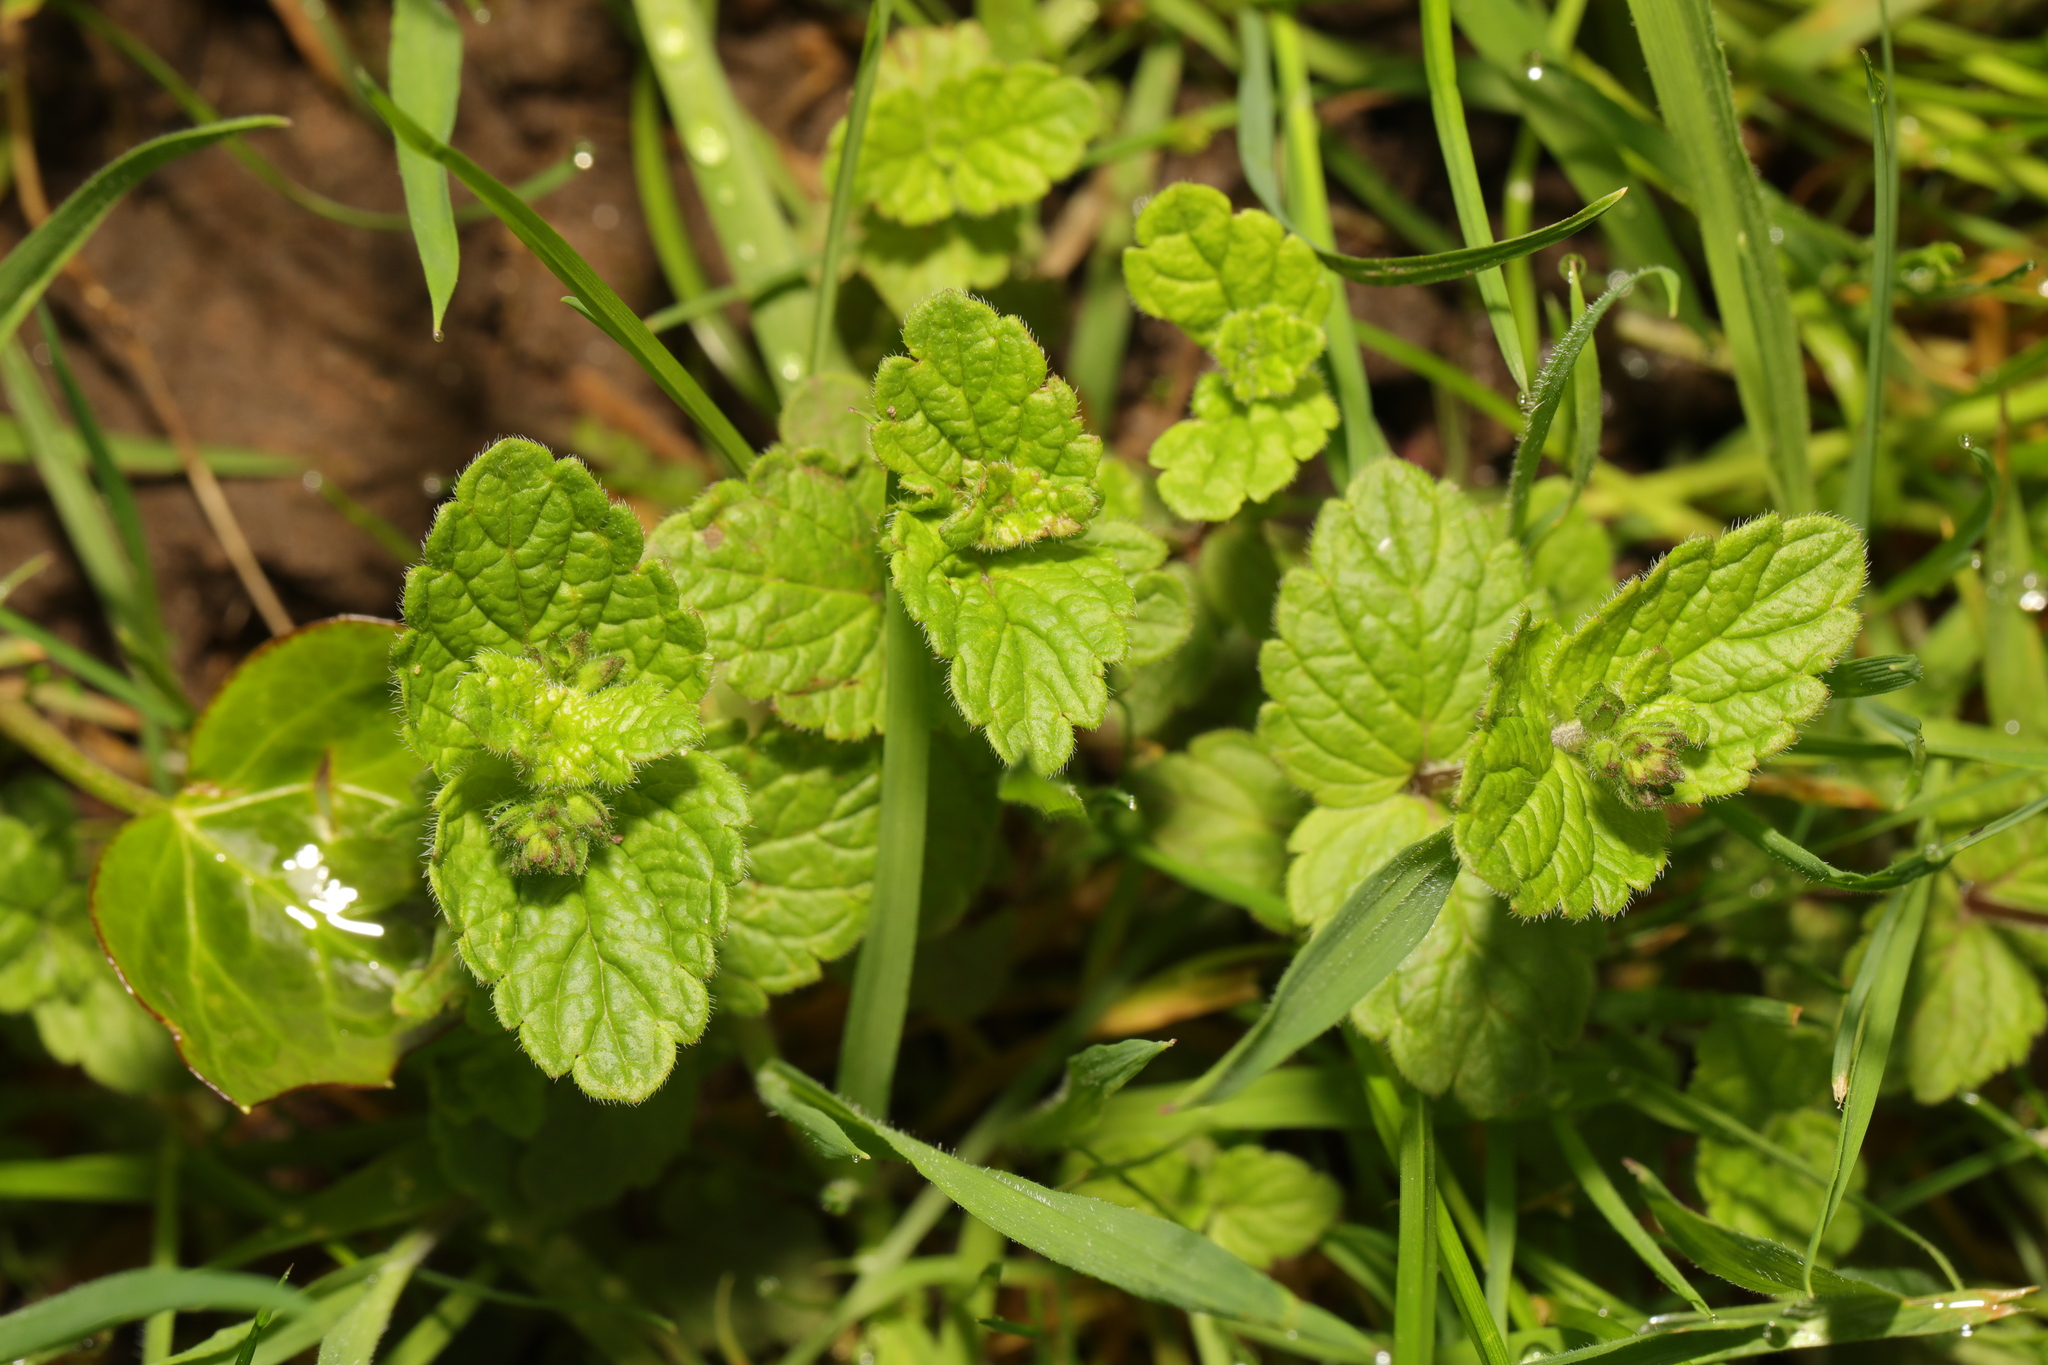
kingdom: Plantae
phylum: Tracheophyta
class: Magnoliopsida
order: Lamiales
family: Plantaginaceae
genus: Veronica
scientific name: Veronica chamaedrys
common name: Germander speedwell
